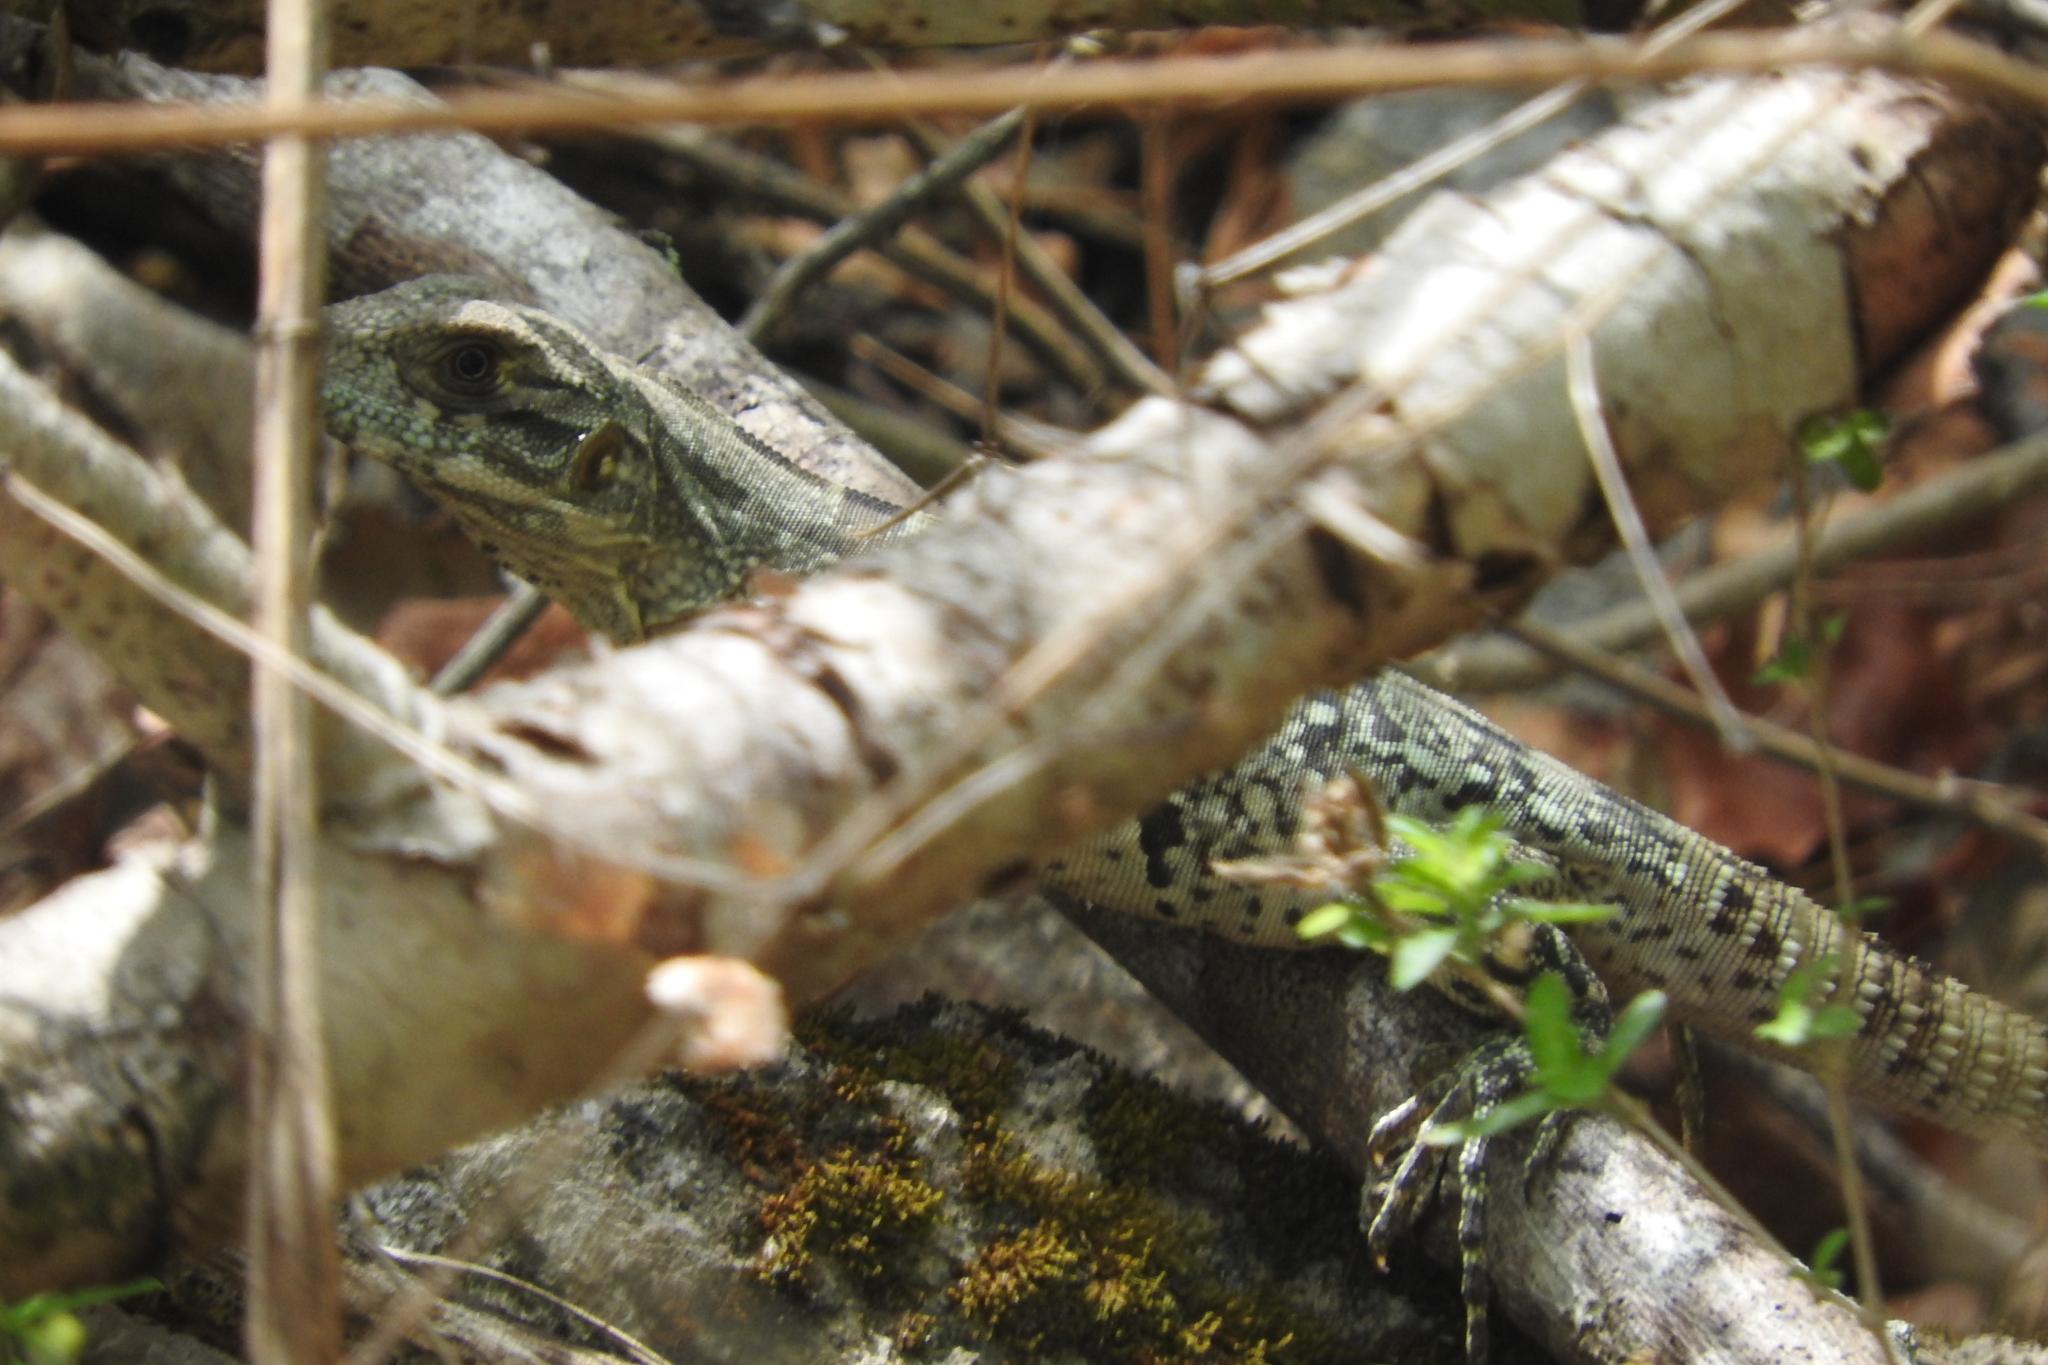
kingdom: Animalia
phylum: Chordata
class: Squamata
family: Iguanidae
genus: Ctenosaura
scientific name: Ctenosaura similis
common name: Black spiny-tailed iguana
